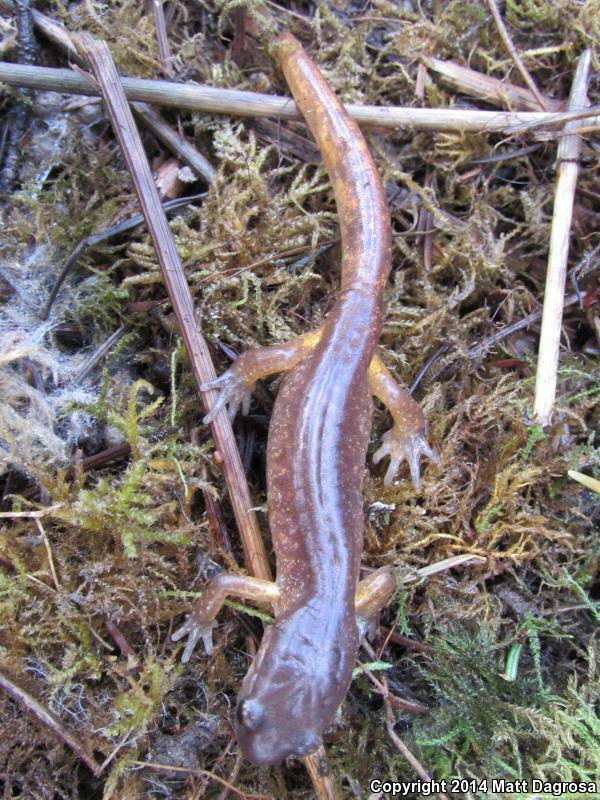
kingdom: Animalia
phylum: Chordata
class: Amphibia
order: Caudata
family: Plethodontidae
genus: Ensatina
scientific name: Ensatina eschscholtzii
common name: Ensatina
